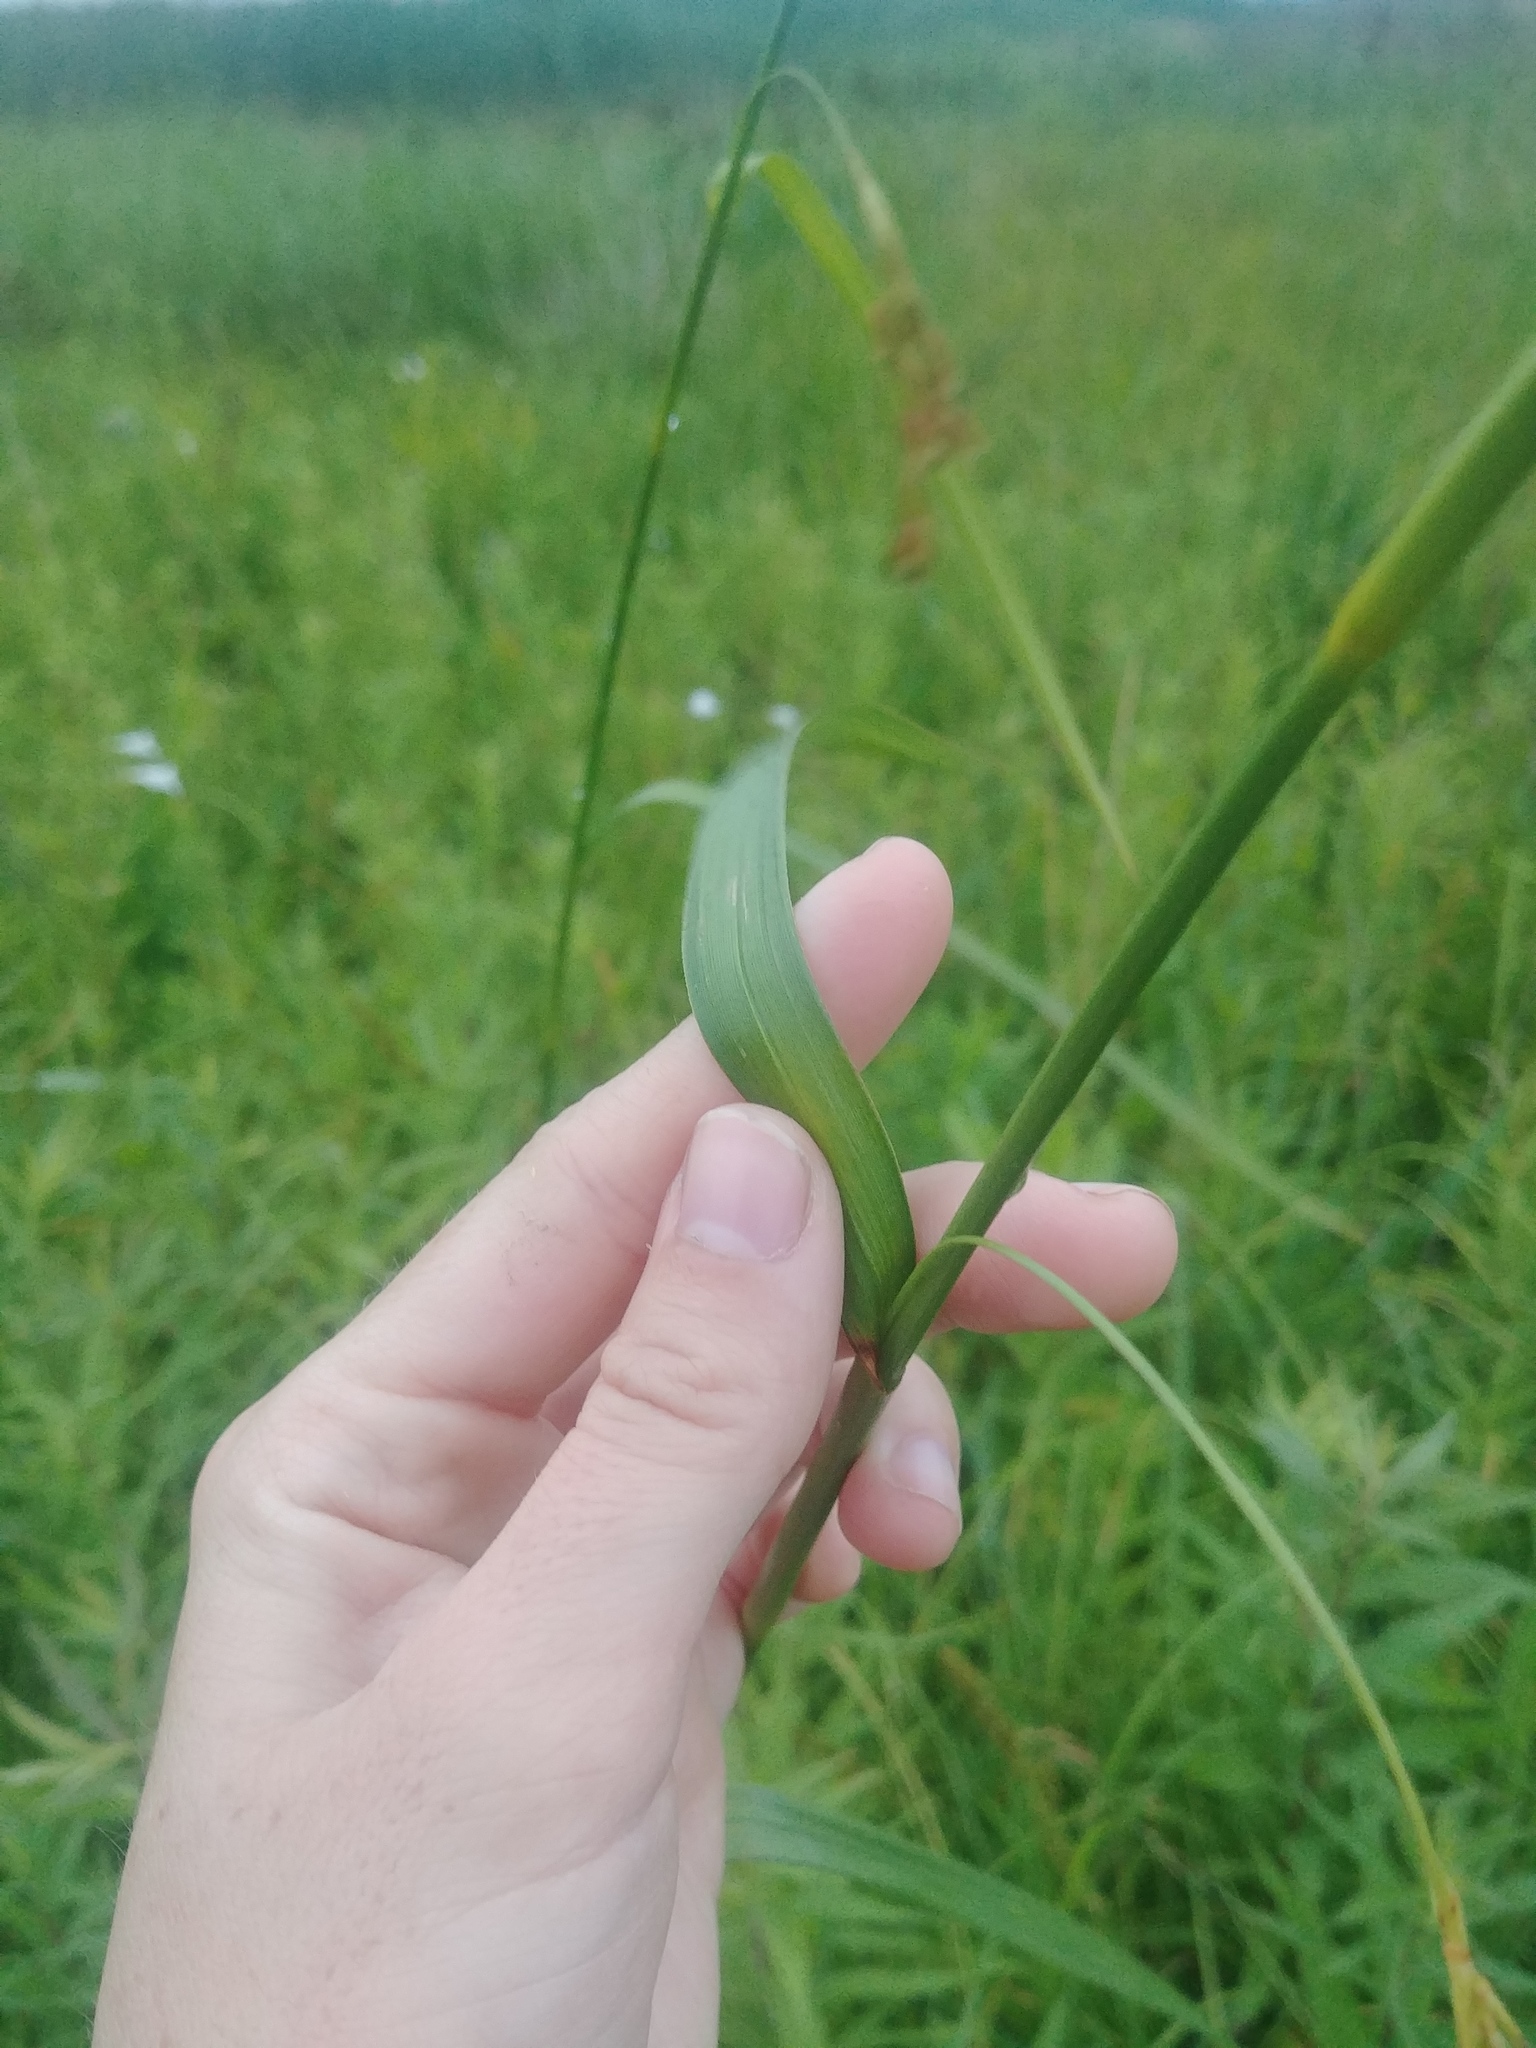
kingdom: Plantae
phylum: Tracheophyta
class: Liliopsida
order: Poales
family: Cyperaceae
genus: Scirpus
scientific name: Scirpus pendulus
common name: Nodding bulrush
